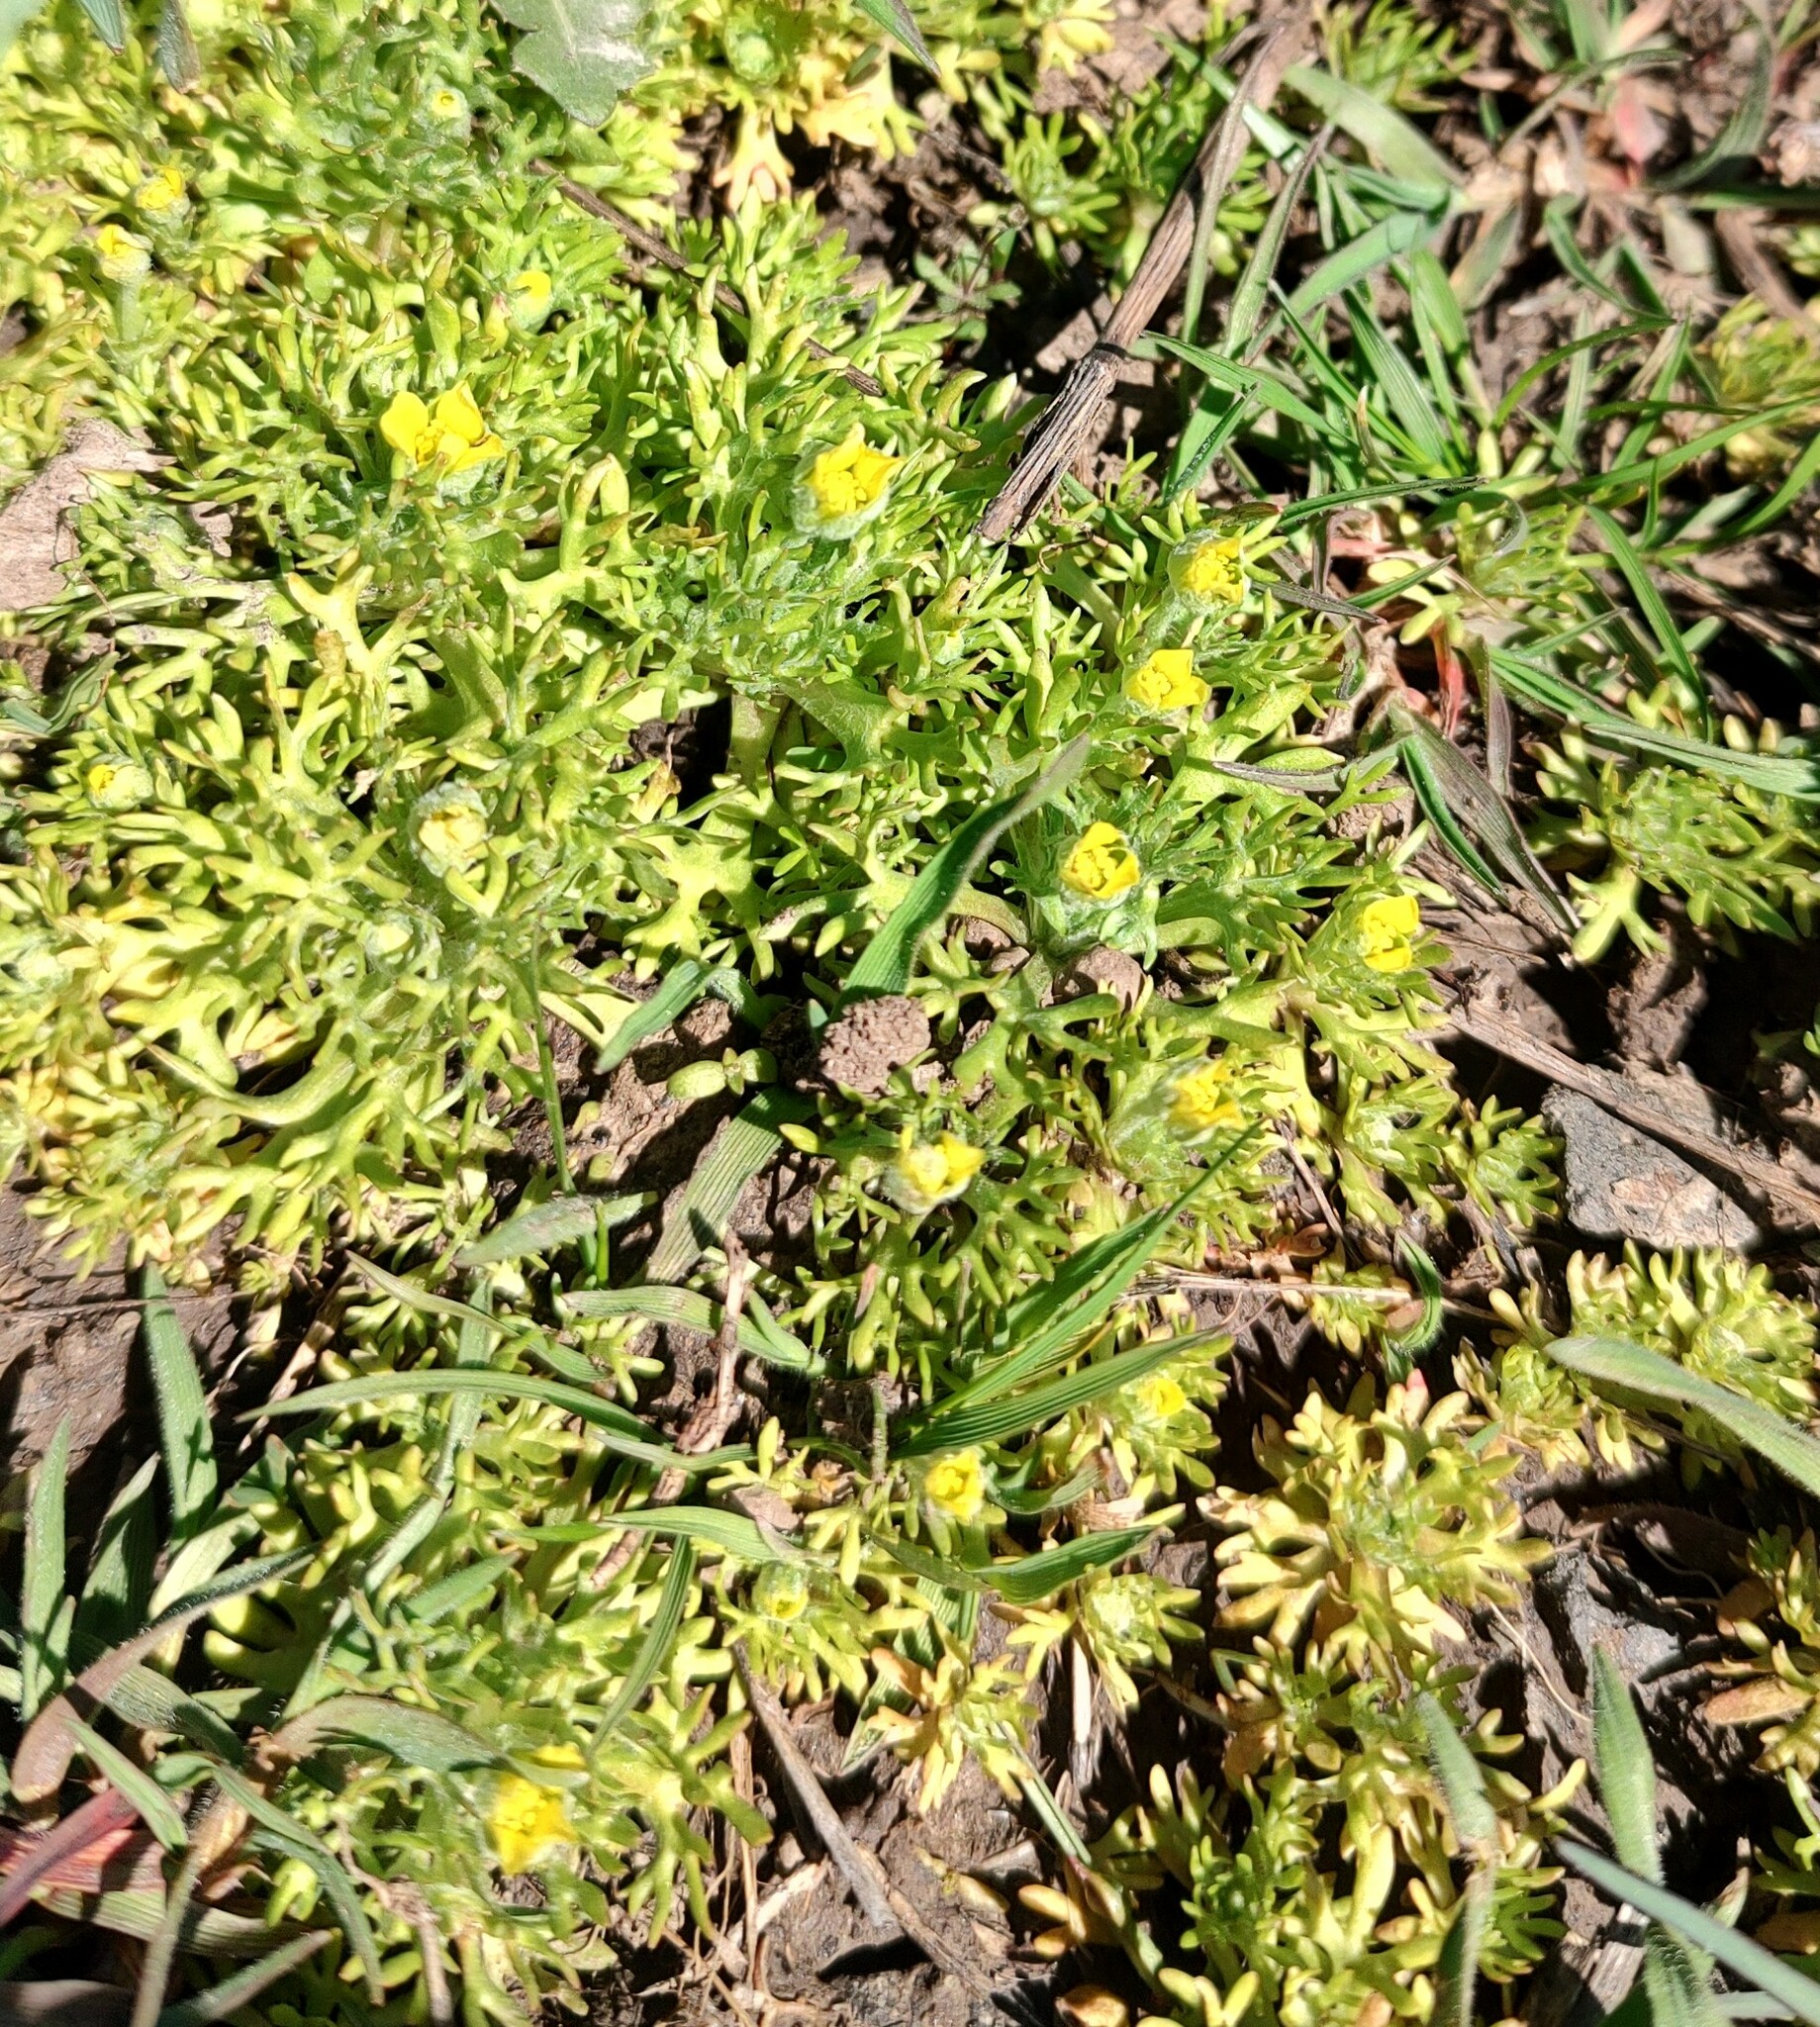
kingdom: Plantae
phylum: Tracheophyta
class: Magnoliopsida
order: Ranunculales
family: Ranunculaceae
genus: Ceratocephala
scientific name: Ceratocephala orthoceras
